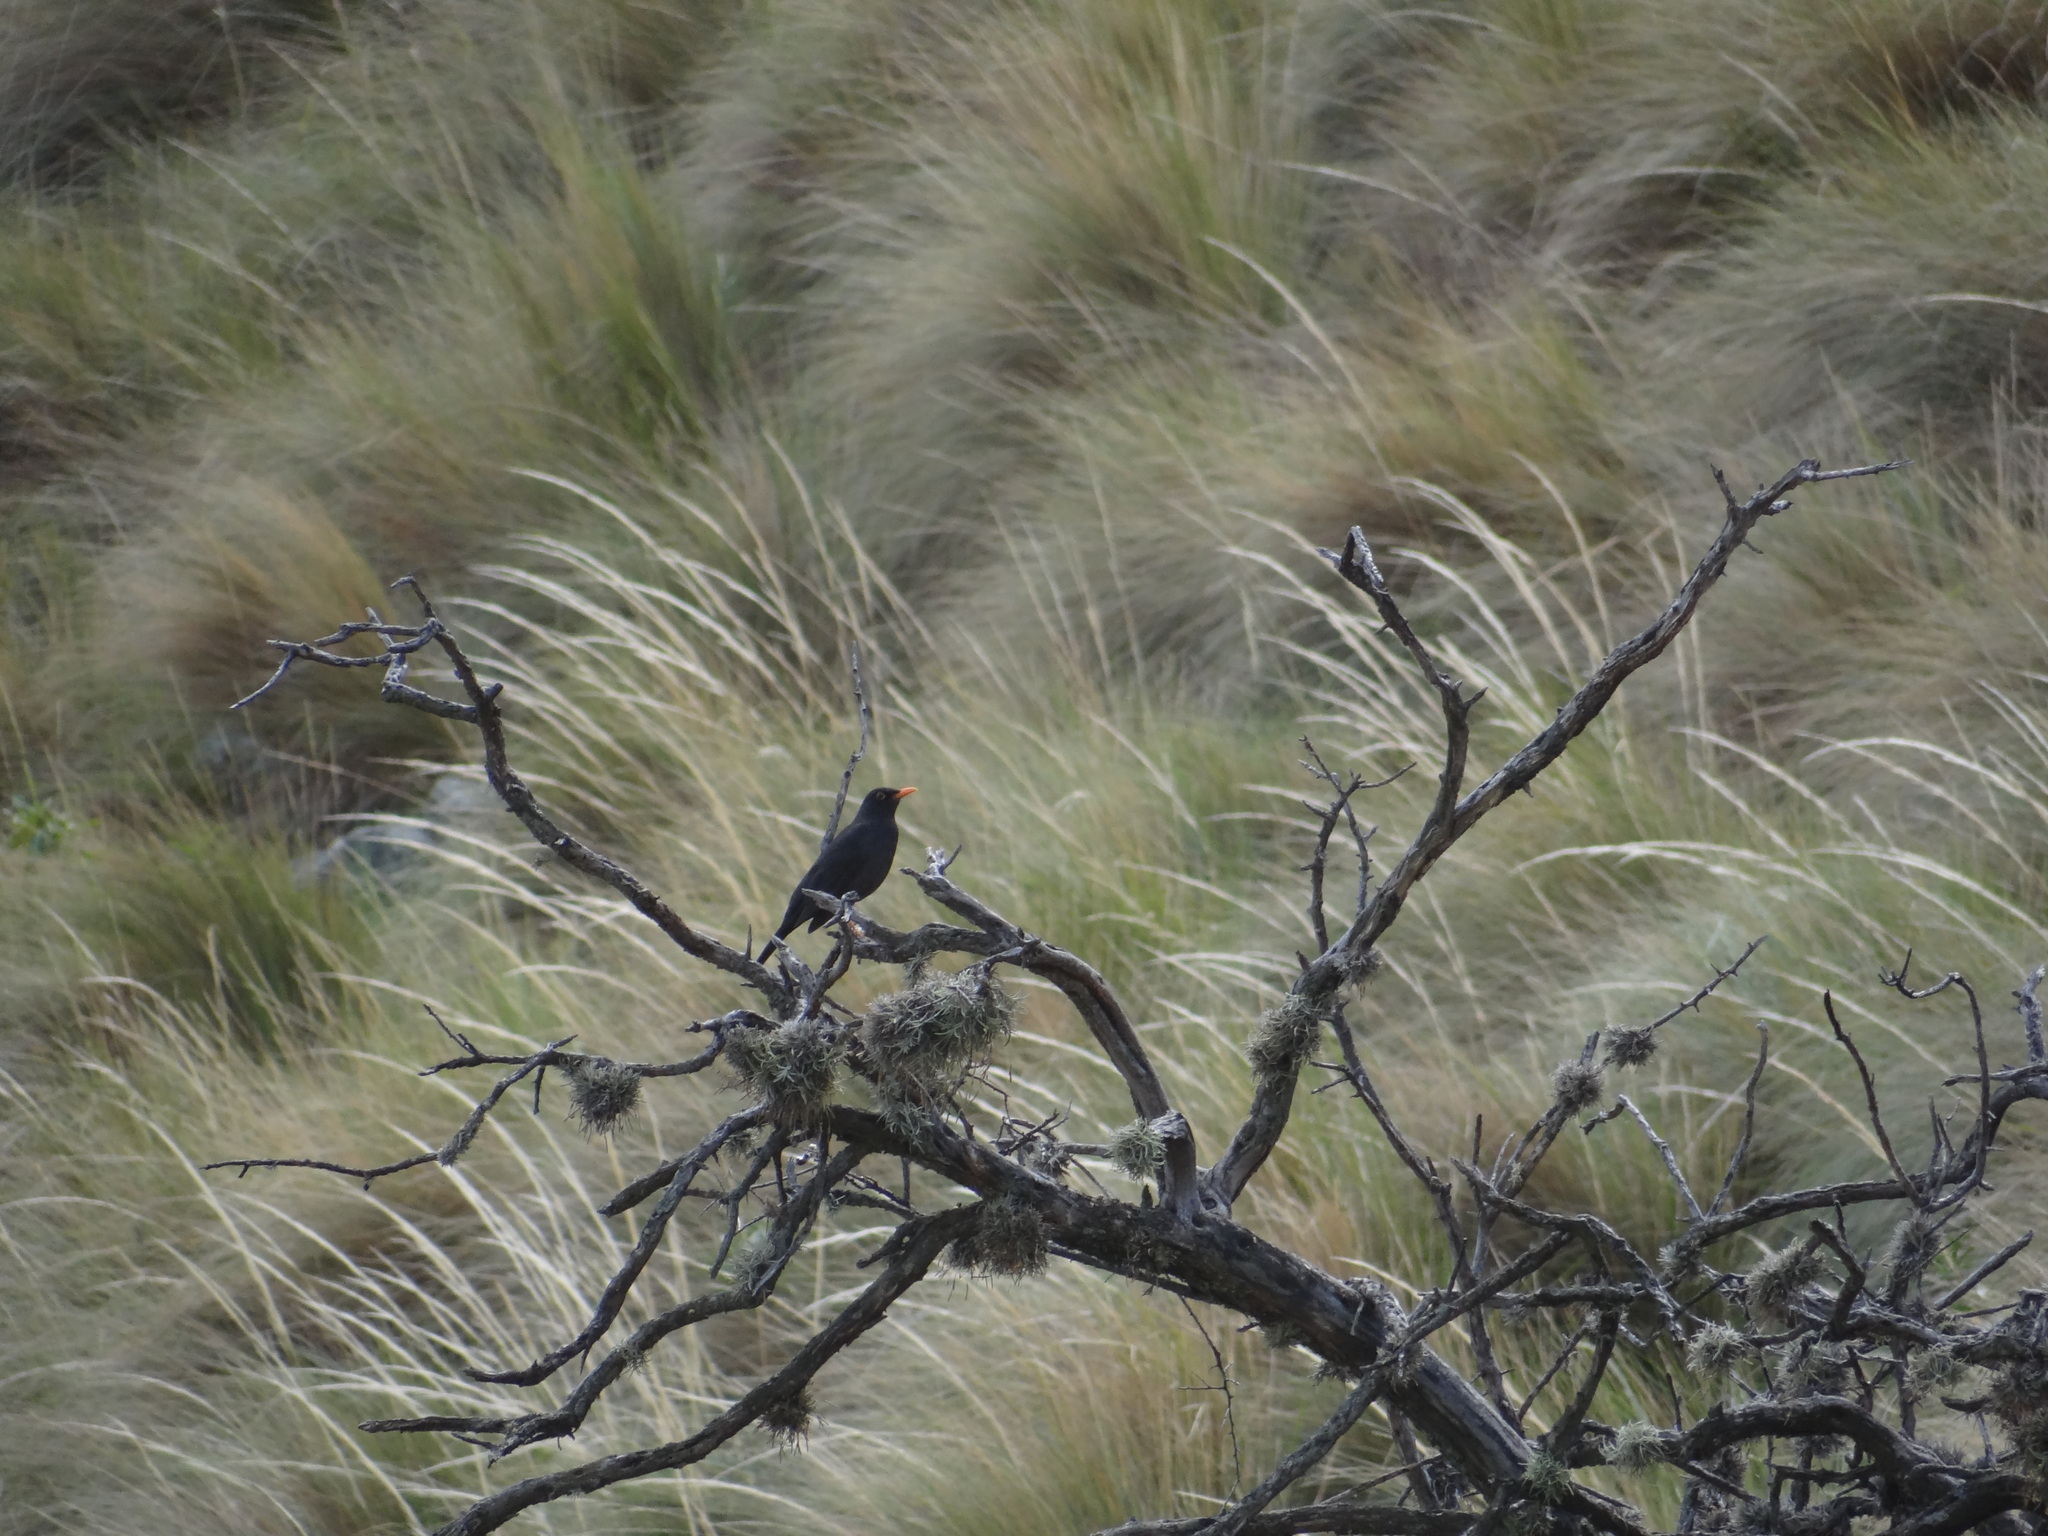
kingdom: Animalia
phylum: Chordata
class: Aves
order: Passeriformes
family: Turdidae
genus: Turdus
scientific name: Turdus chiguanco
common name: Chiguanco thrush
